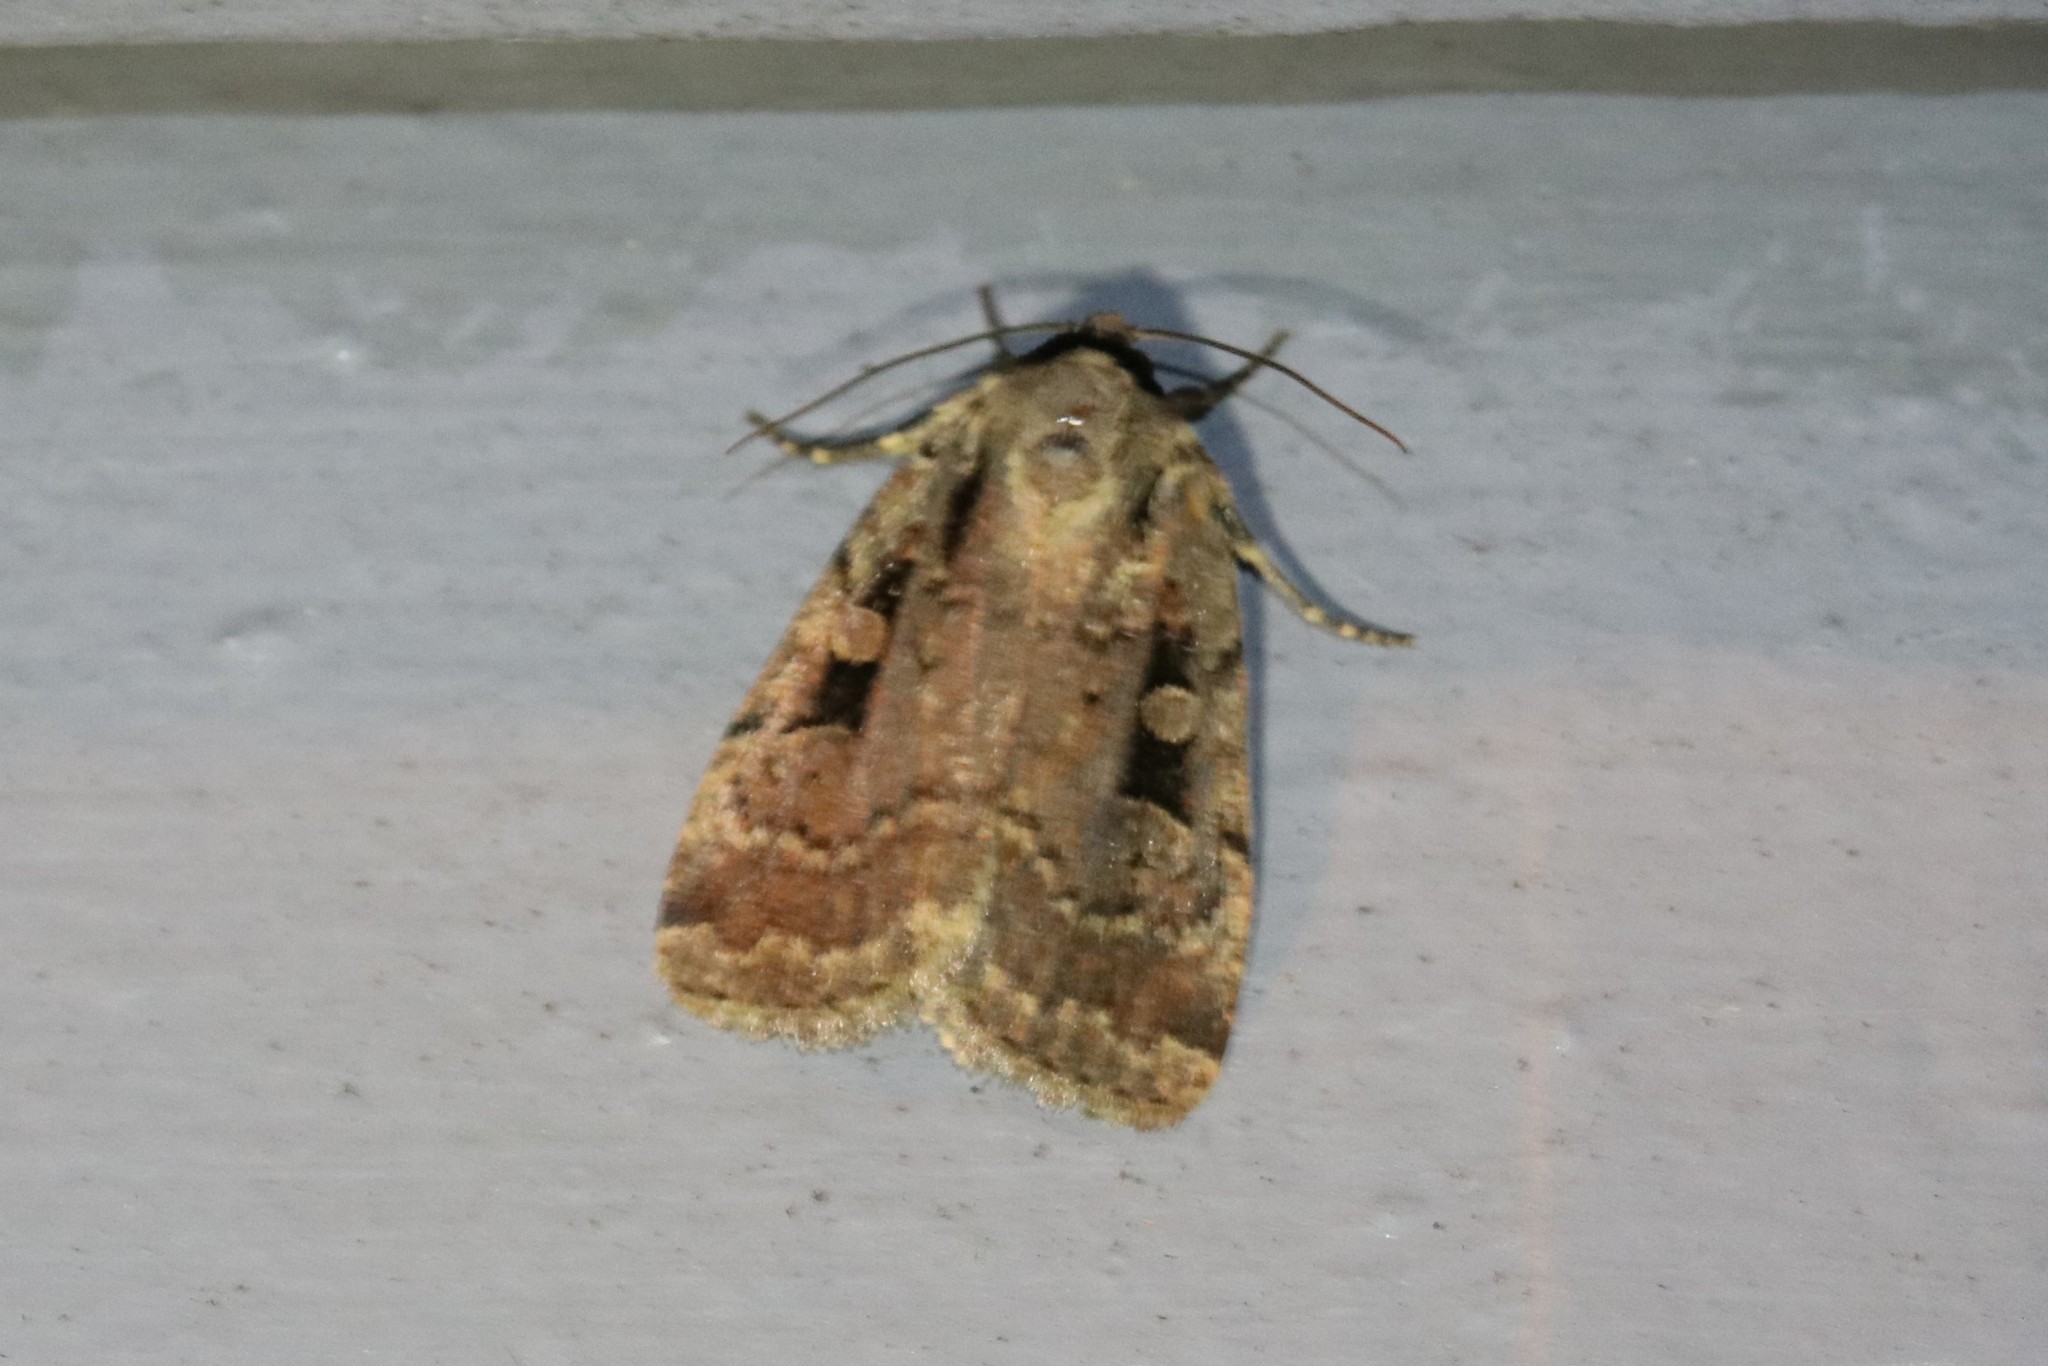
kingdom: Animalia
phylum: Arthropoda
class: Insecta
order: Lepidoptera
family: Noctuidae
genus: Eueretagrotis
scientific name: Eueretagrotis perattentus
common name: Two-spot dart moth
